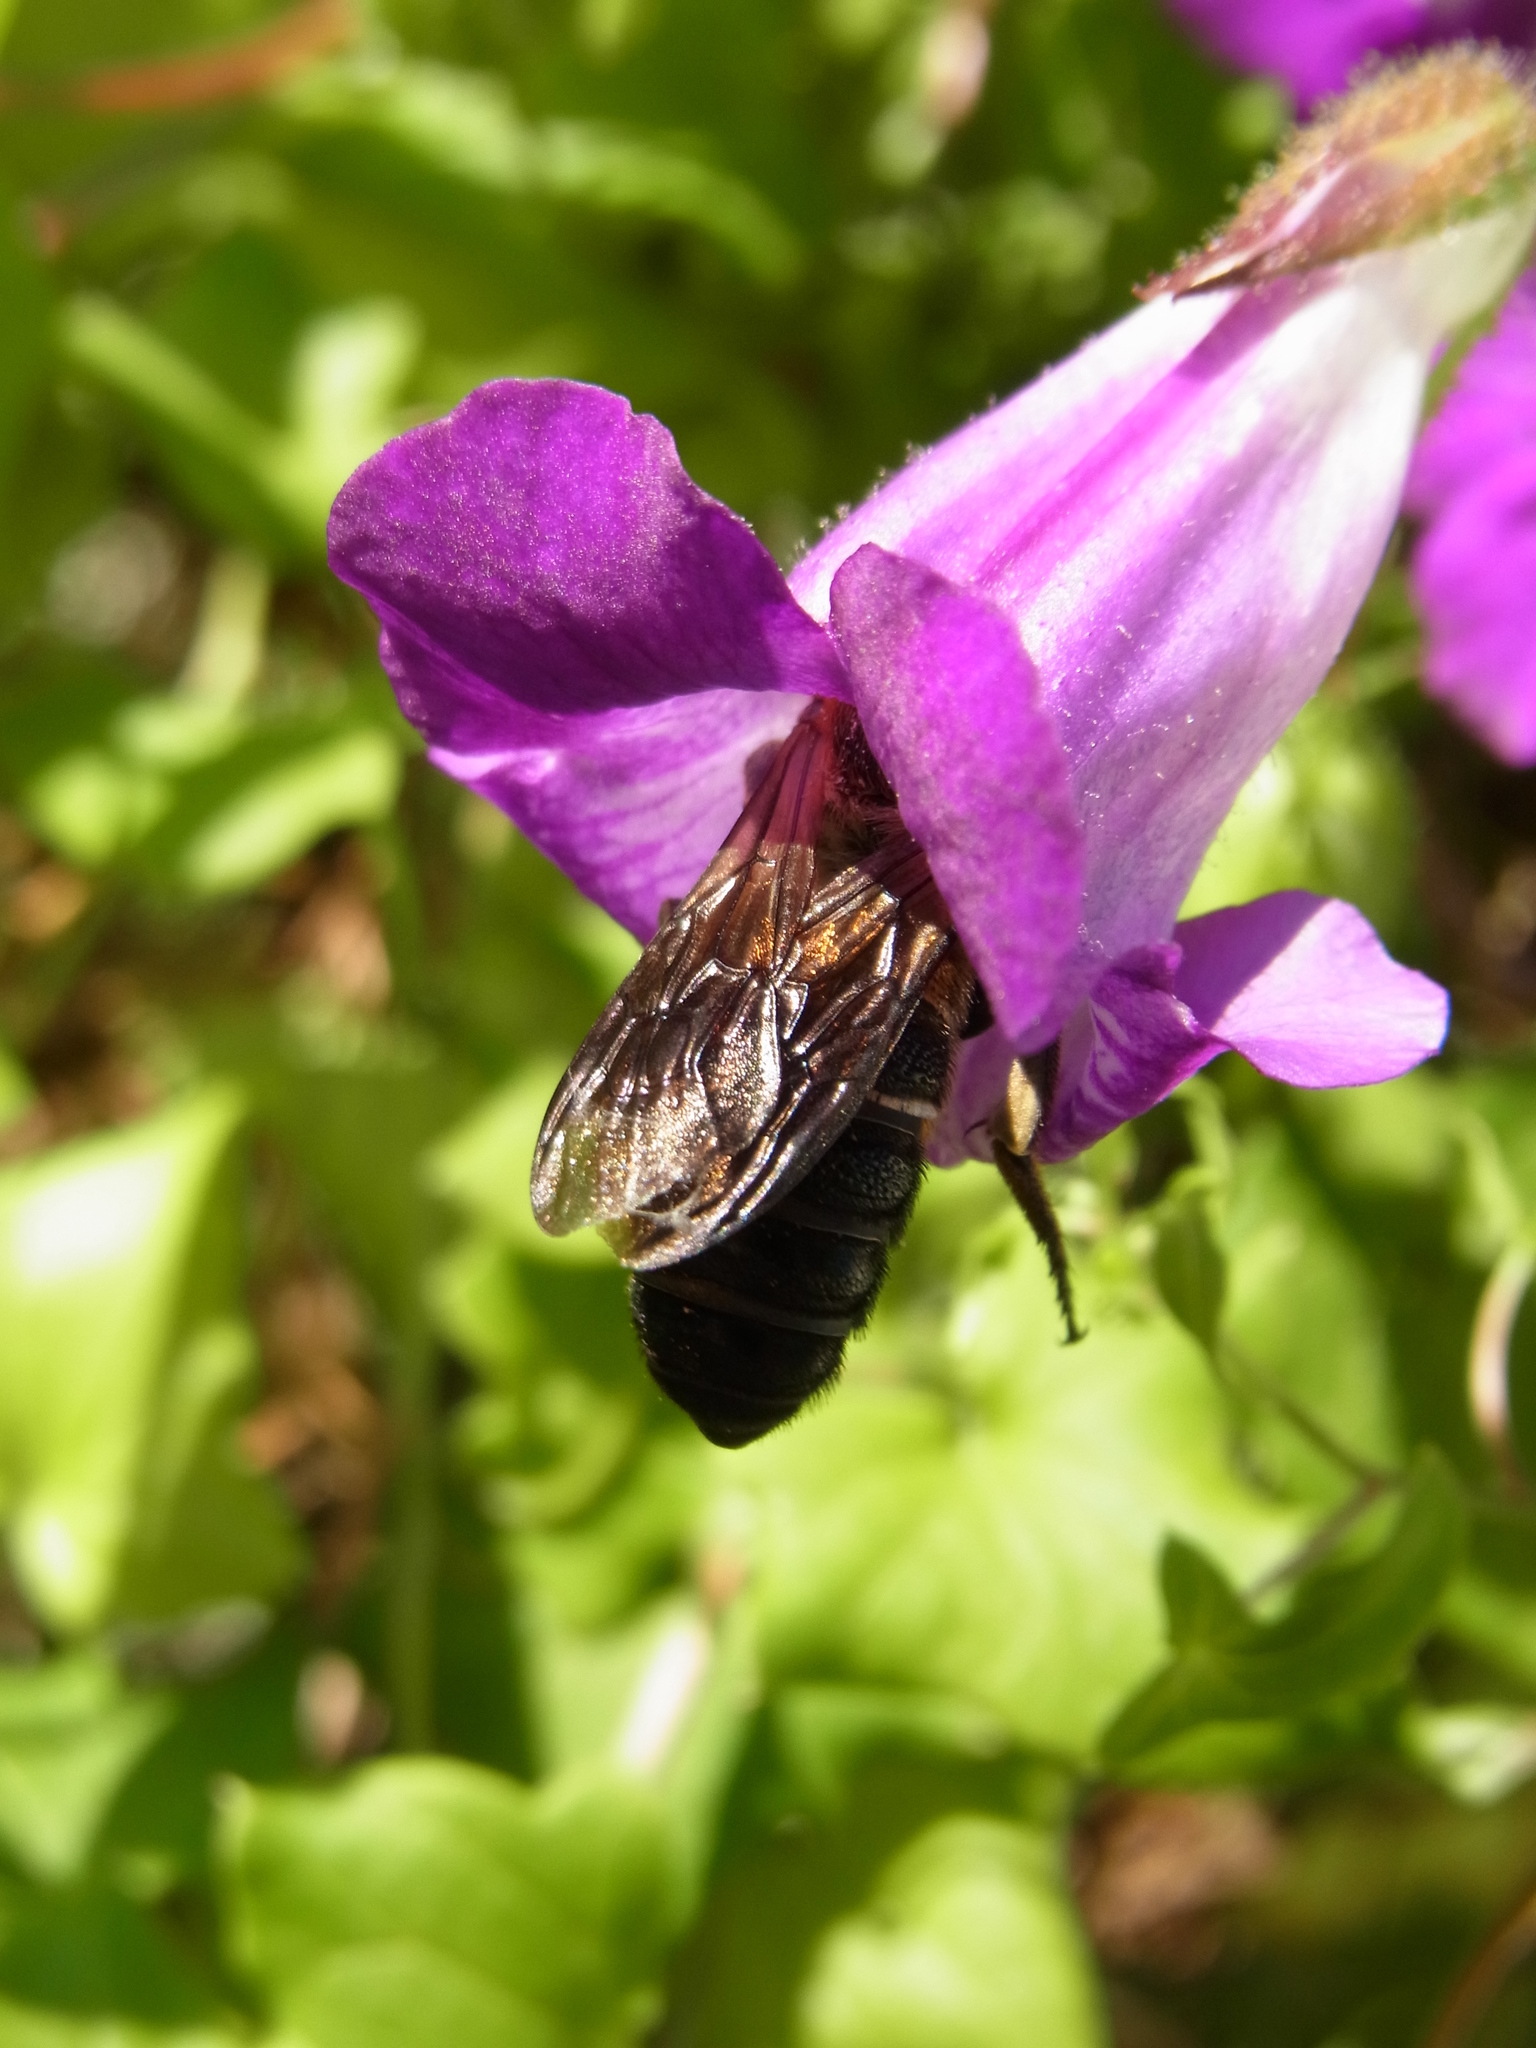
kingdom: Animalia
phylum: Arthropoda
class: Insecta
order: Hymenoptera
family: Megachilidae
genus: Megachile
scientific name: Megachile sculpturalis
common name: Sculptured resin bee
